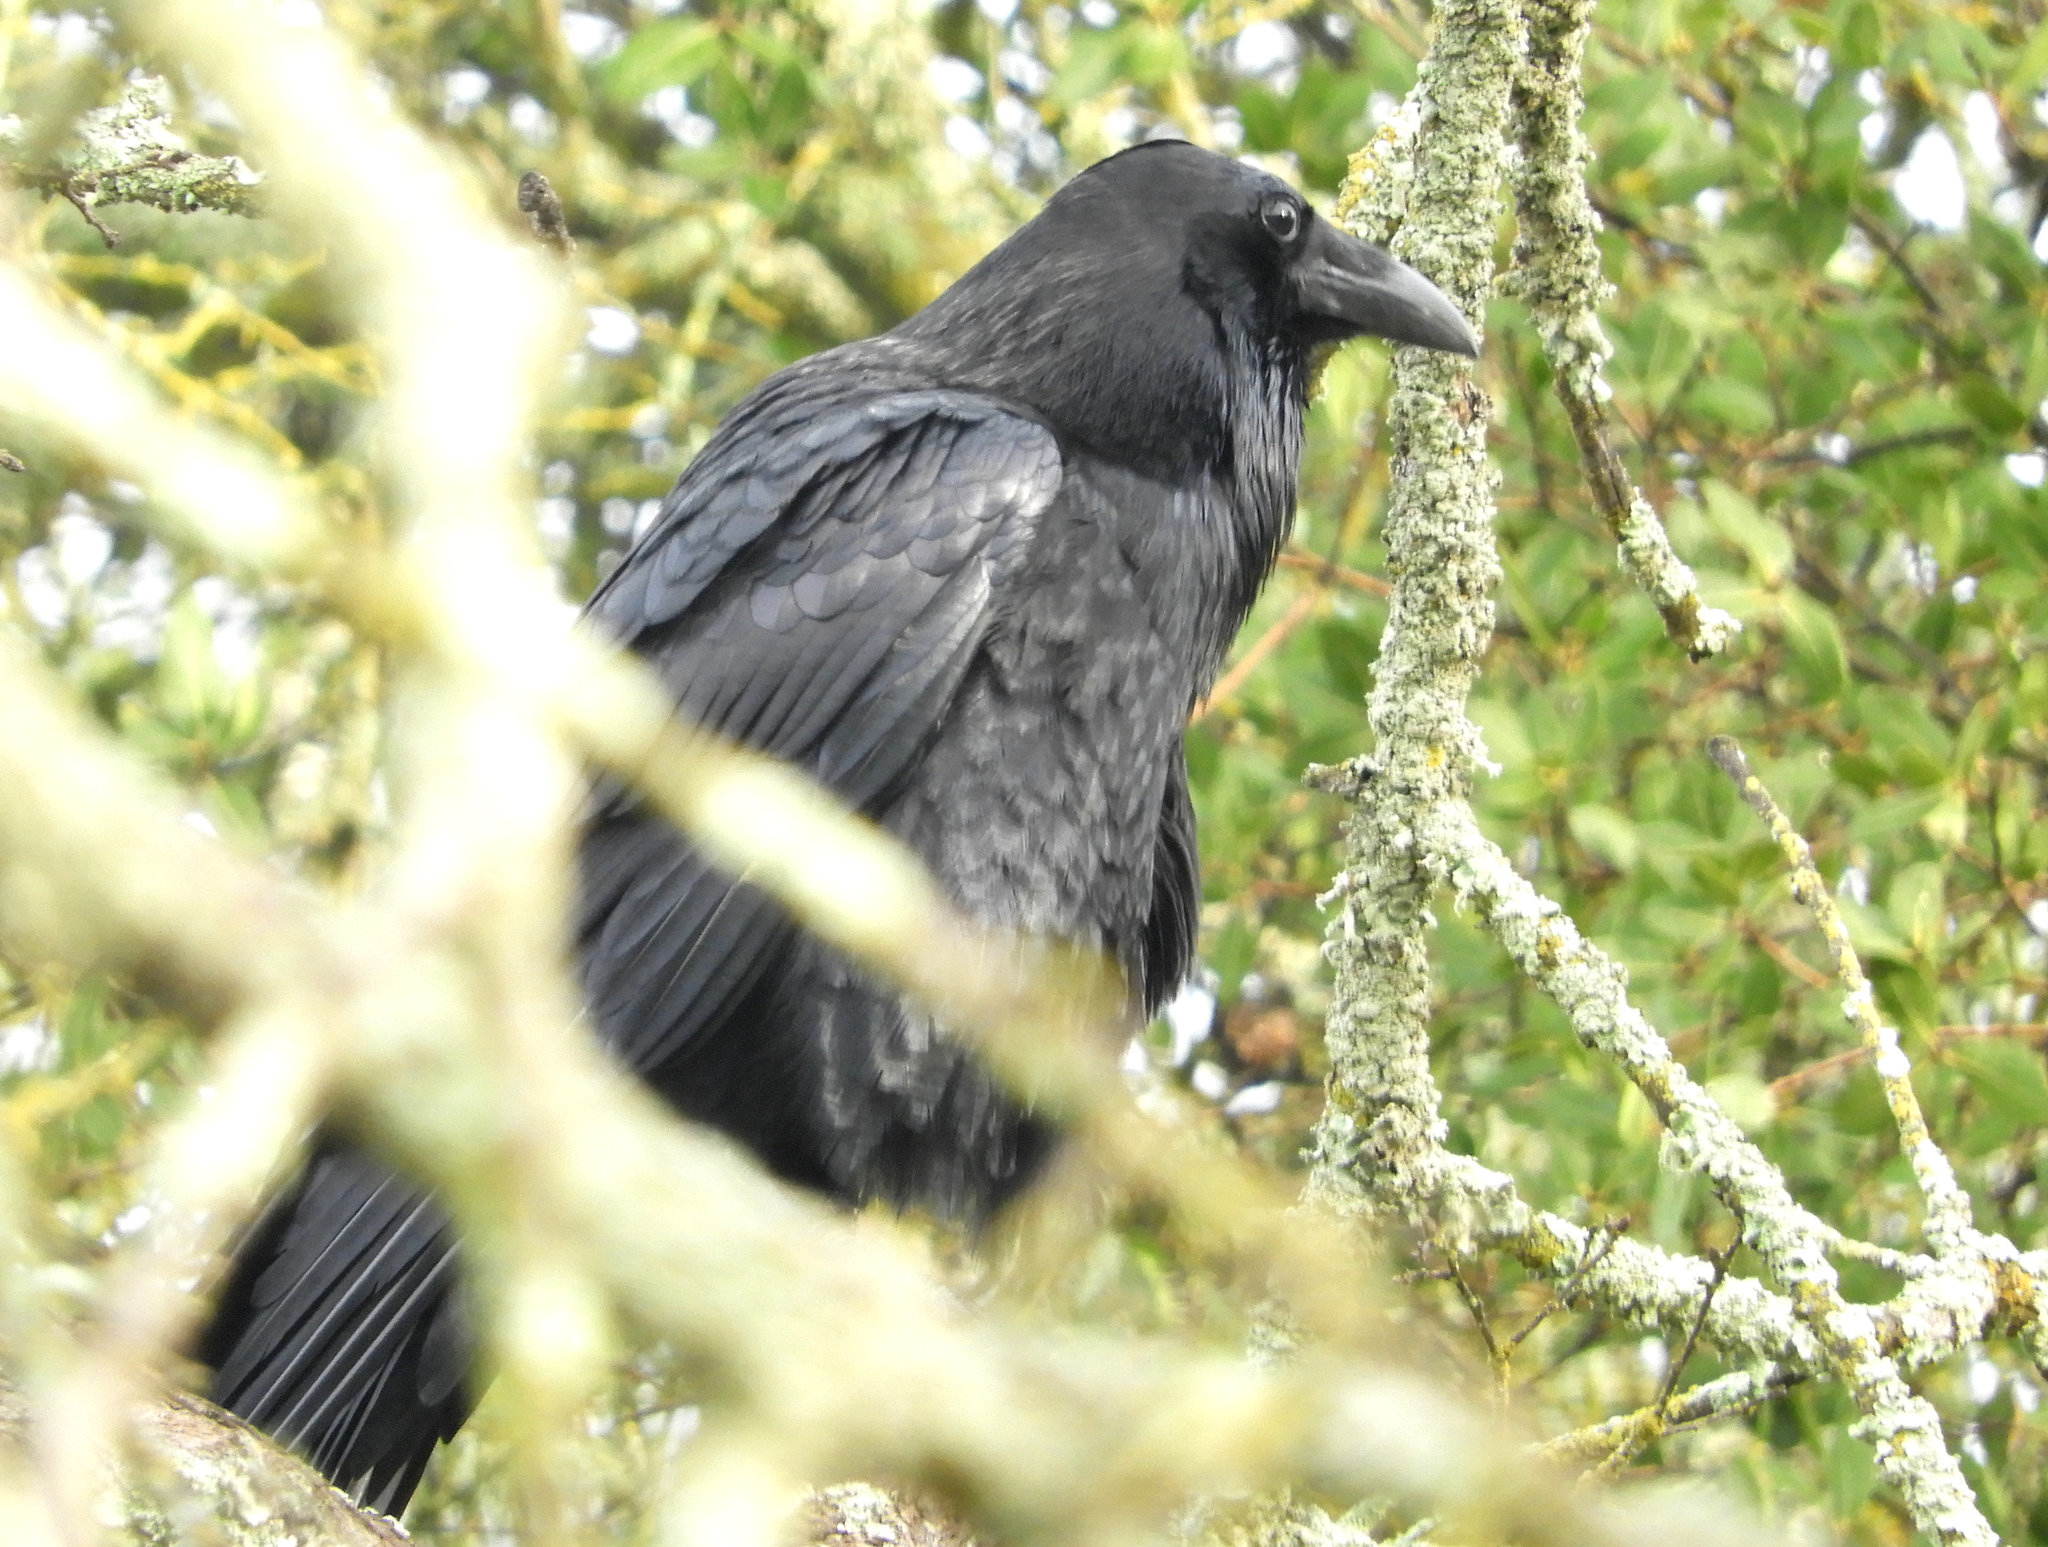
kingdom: Animalia
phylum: Chordata
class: Aves
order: Passeriformes
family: Corvidae
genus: Corvus
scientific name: Corvus corax
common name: Common raven
